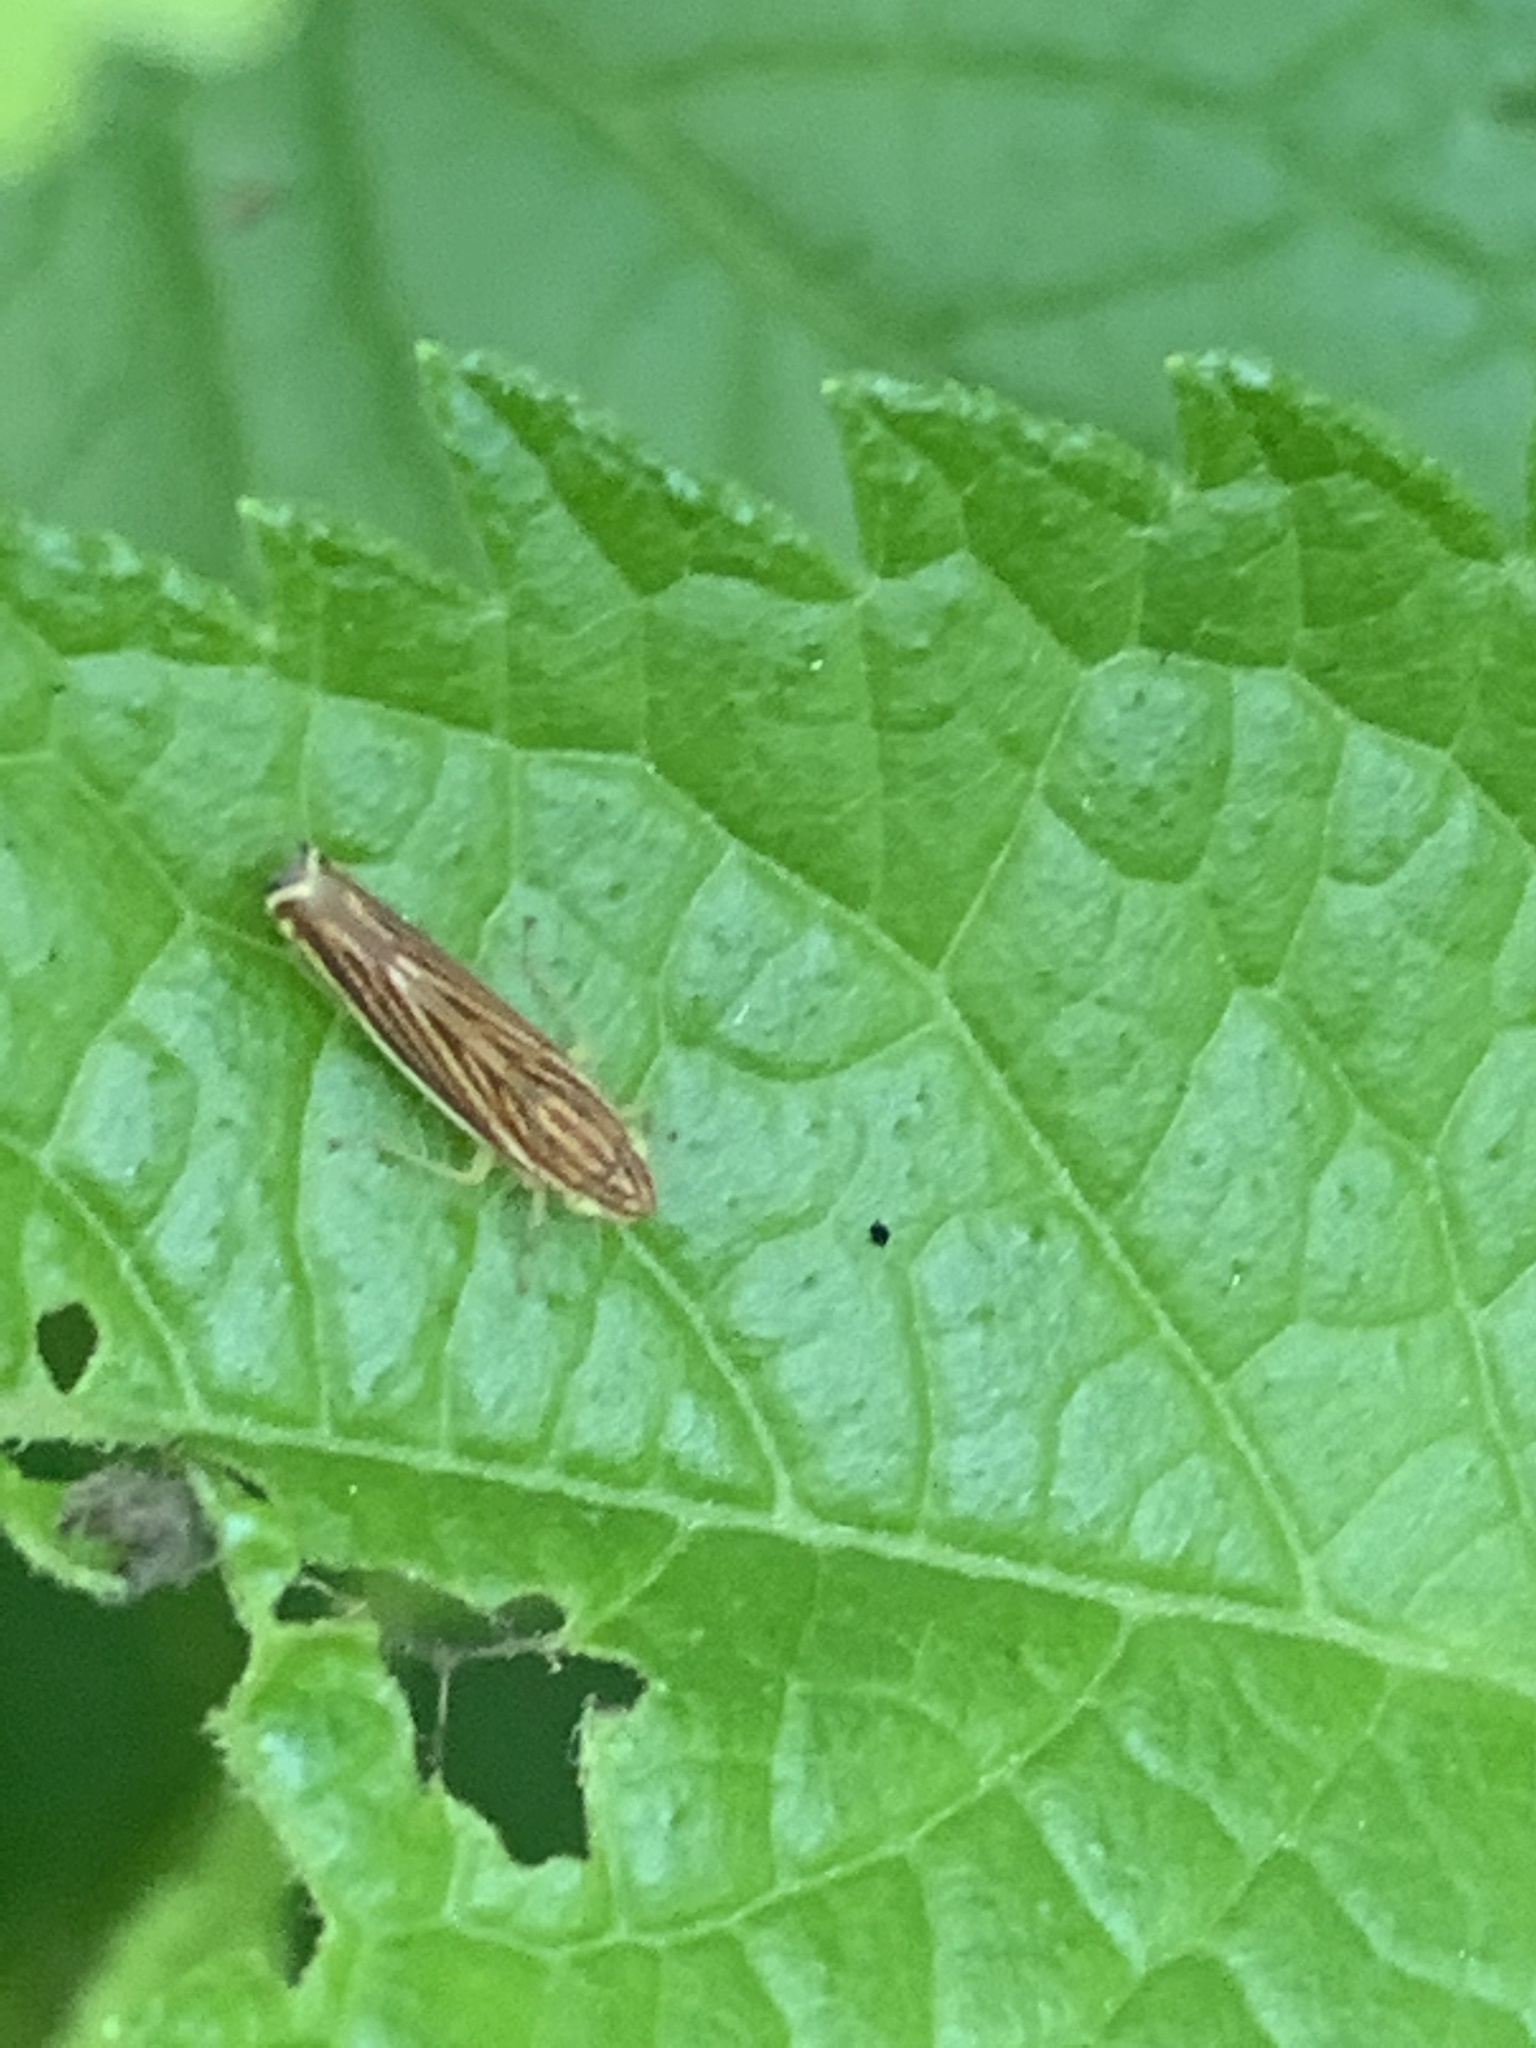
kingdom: Animalia
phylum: Arthropoda
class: Insecta
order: Hemiptera
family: Cicadellidae
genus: Sibovia
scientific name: Sibovia occatoria
